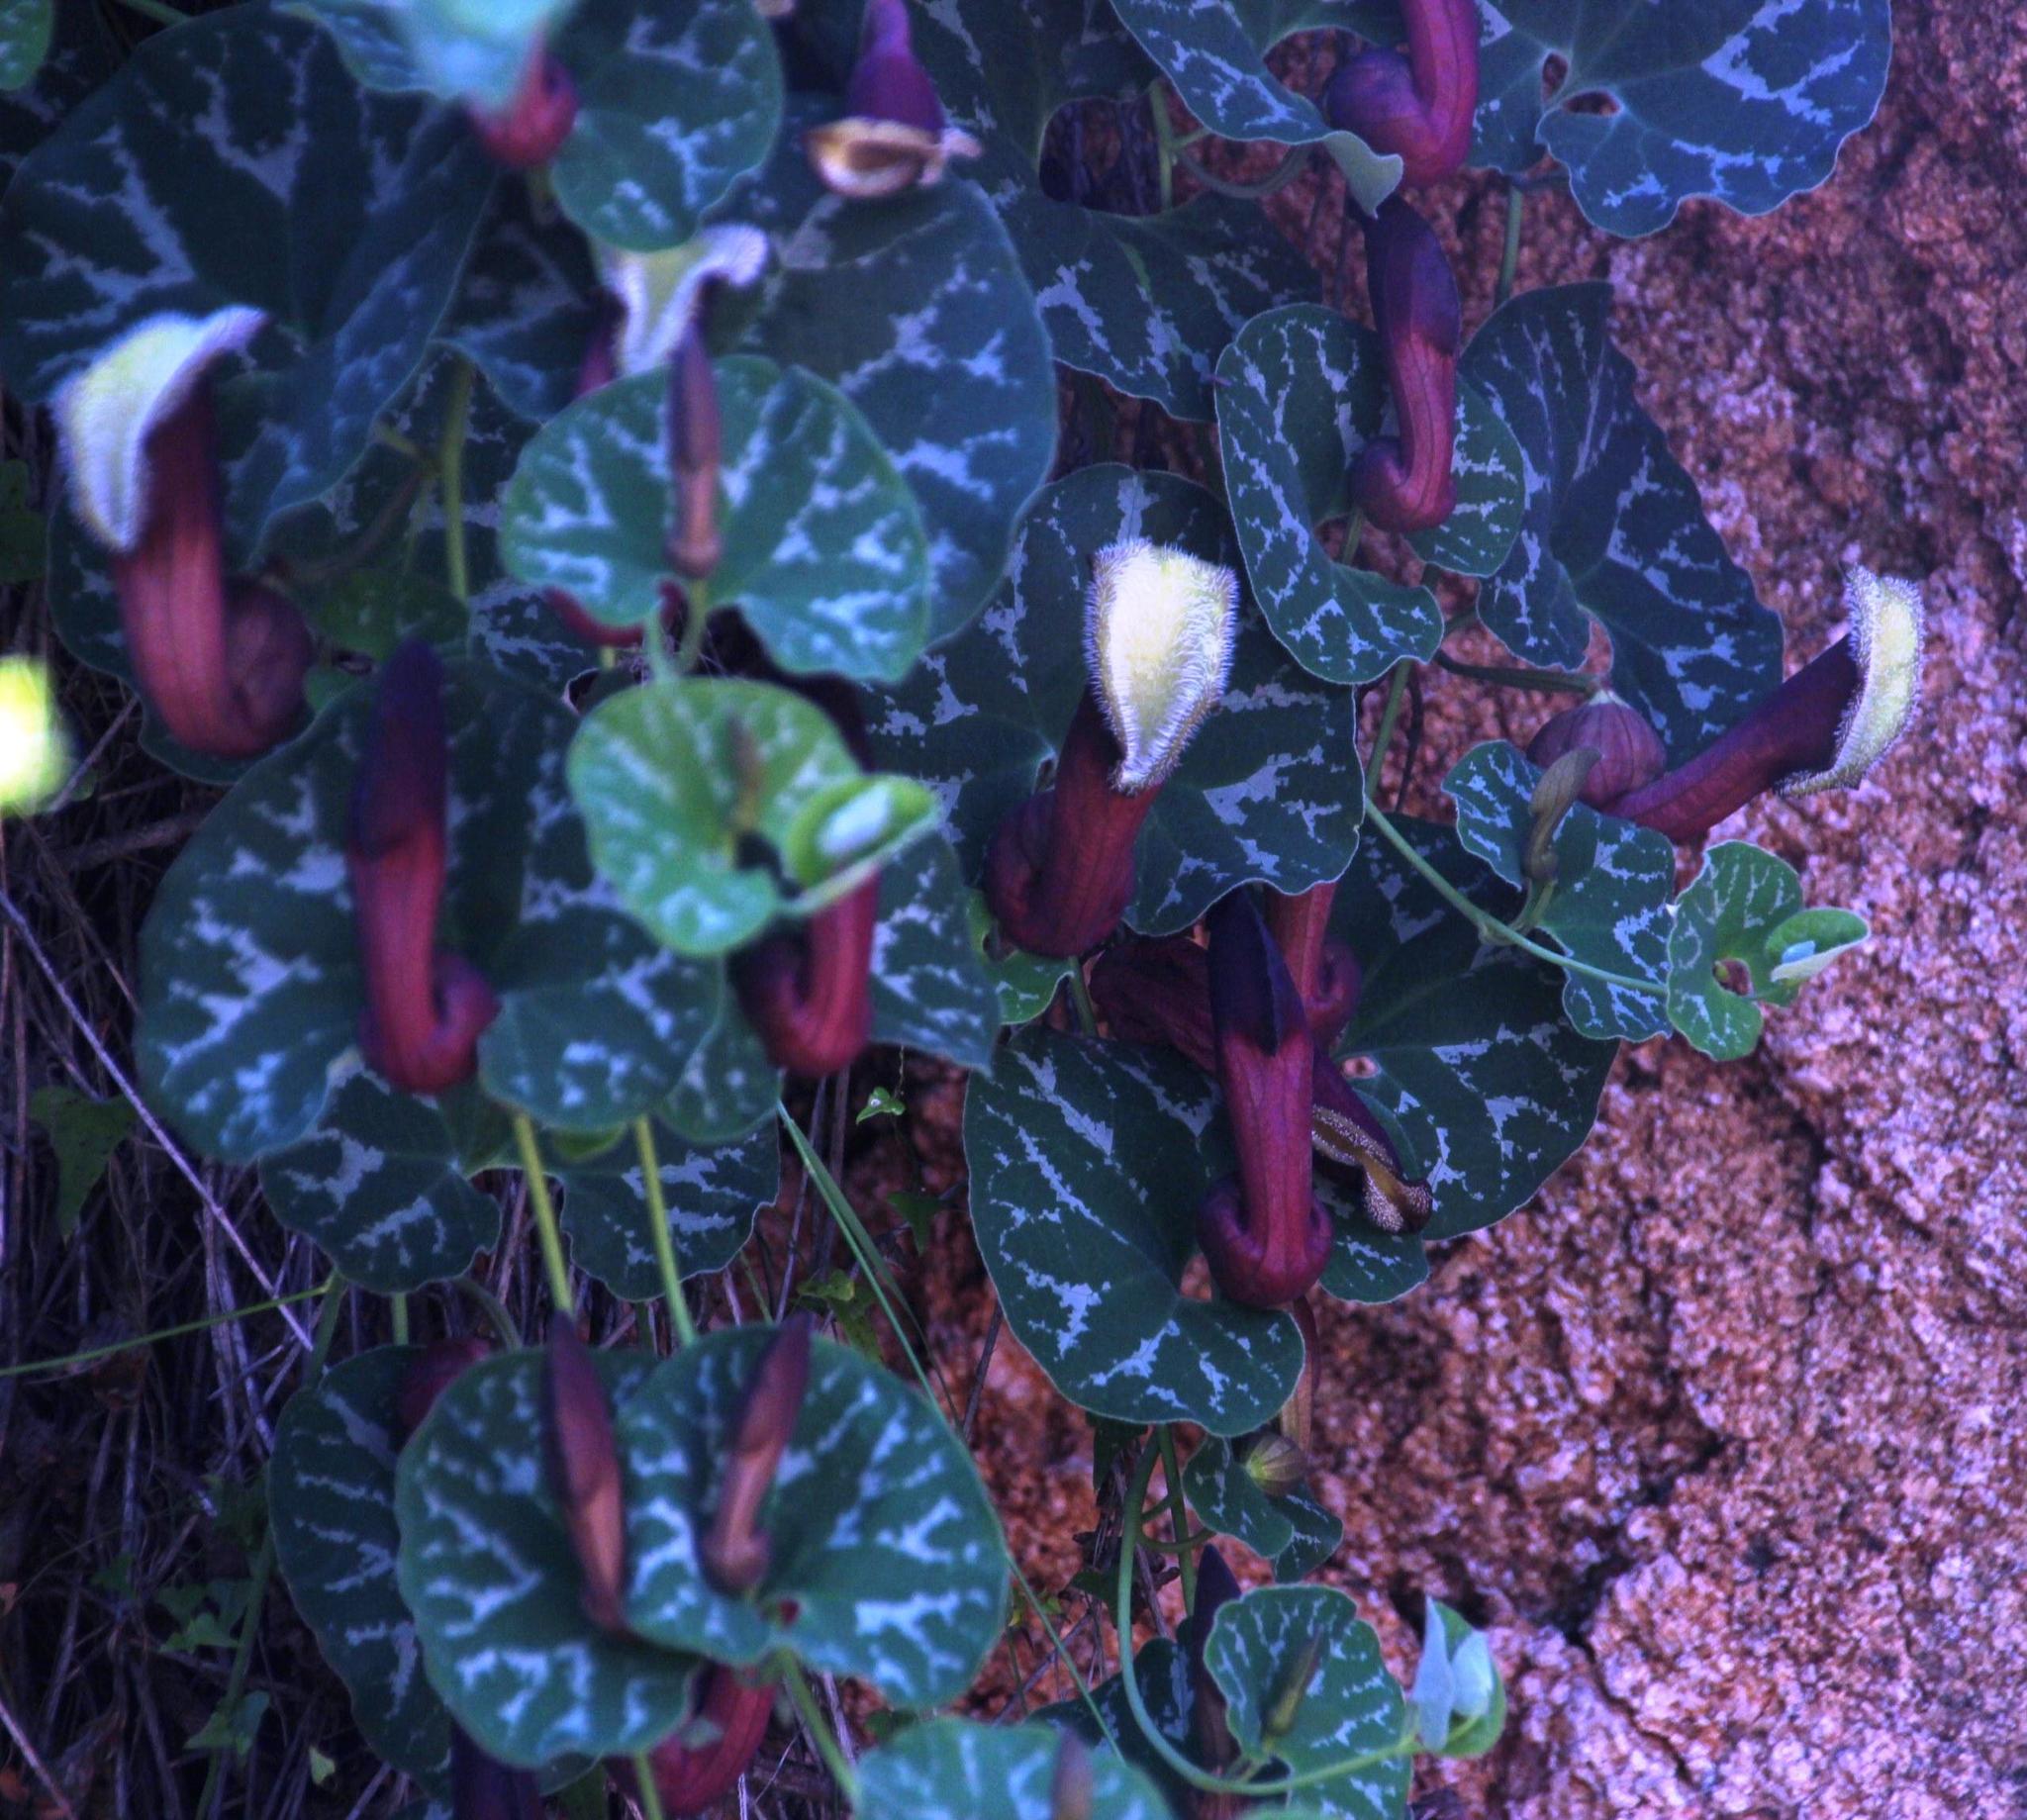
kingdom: Plantae
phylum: Tracheophyta
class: Magnoliopsida
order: Piperales
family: Aristolochiaceae
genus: Aristolochia
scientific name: Aristolochia chilensis
